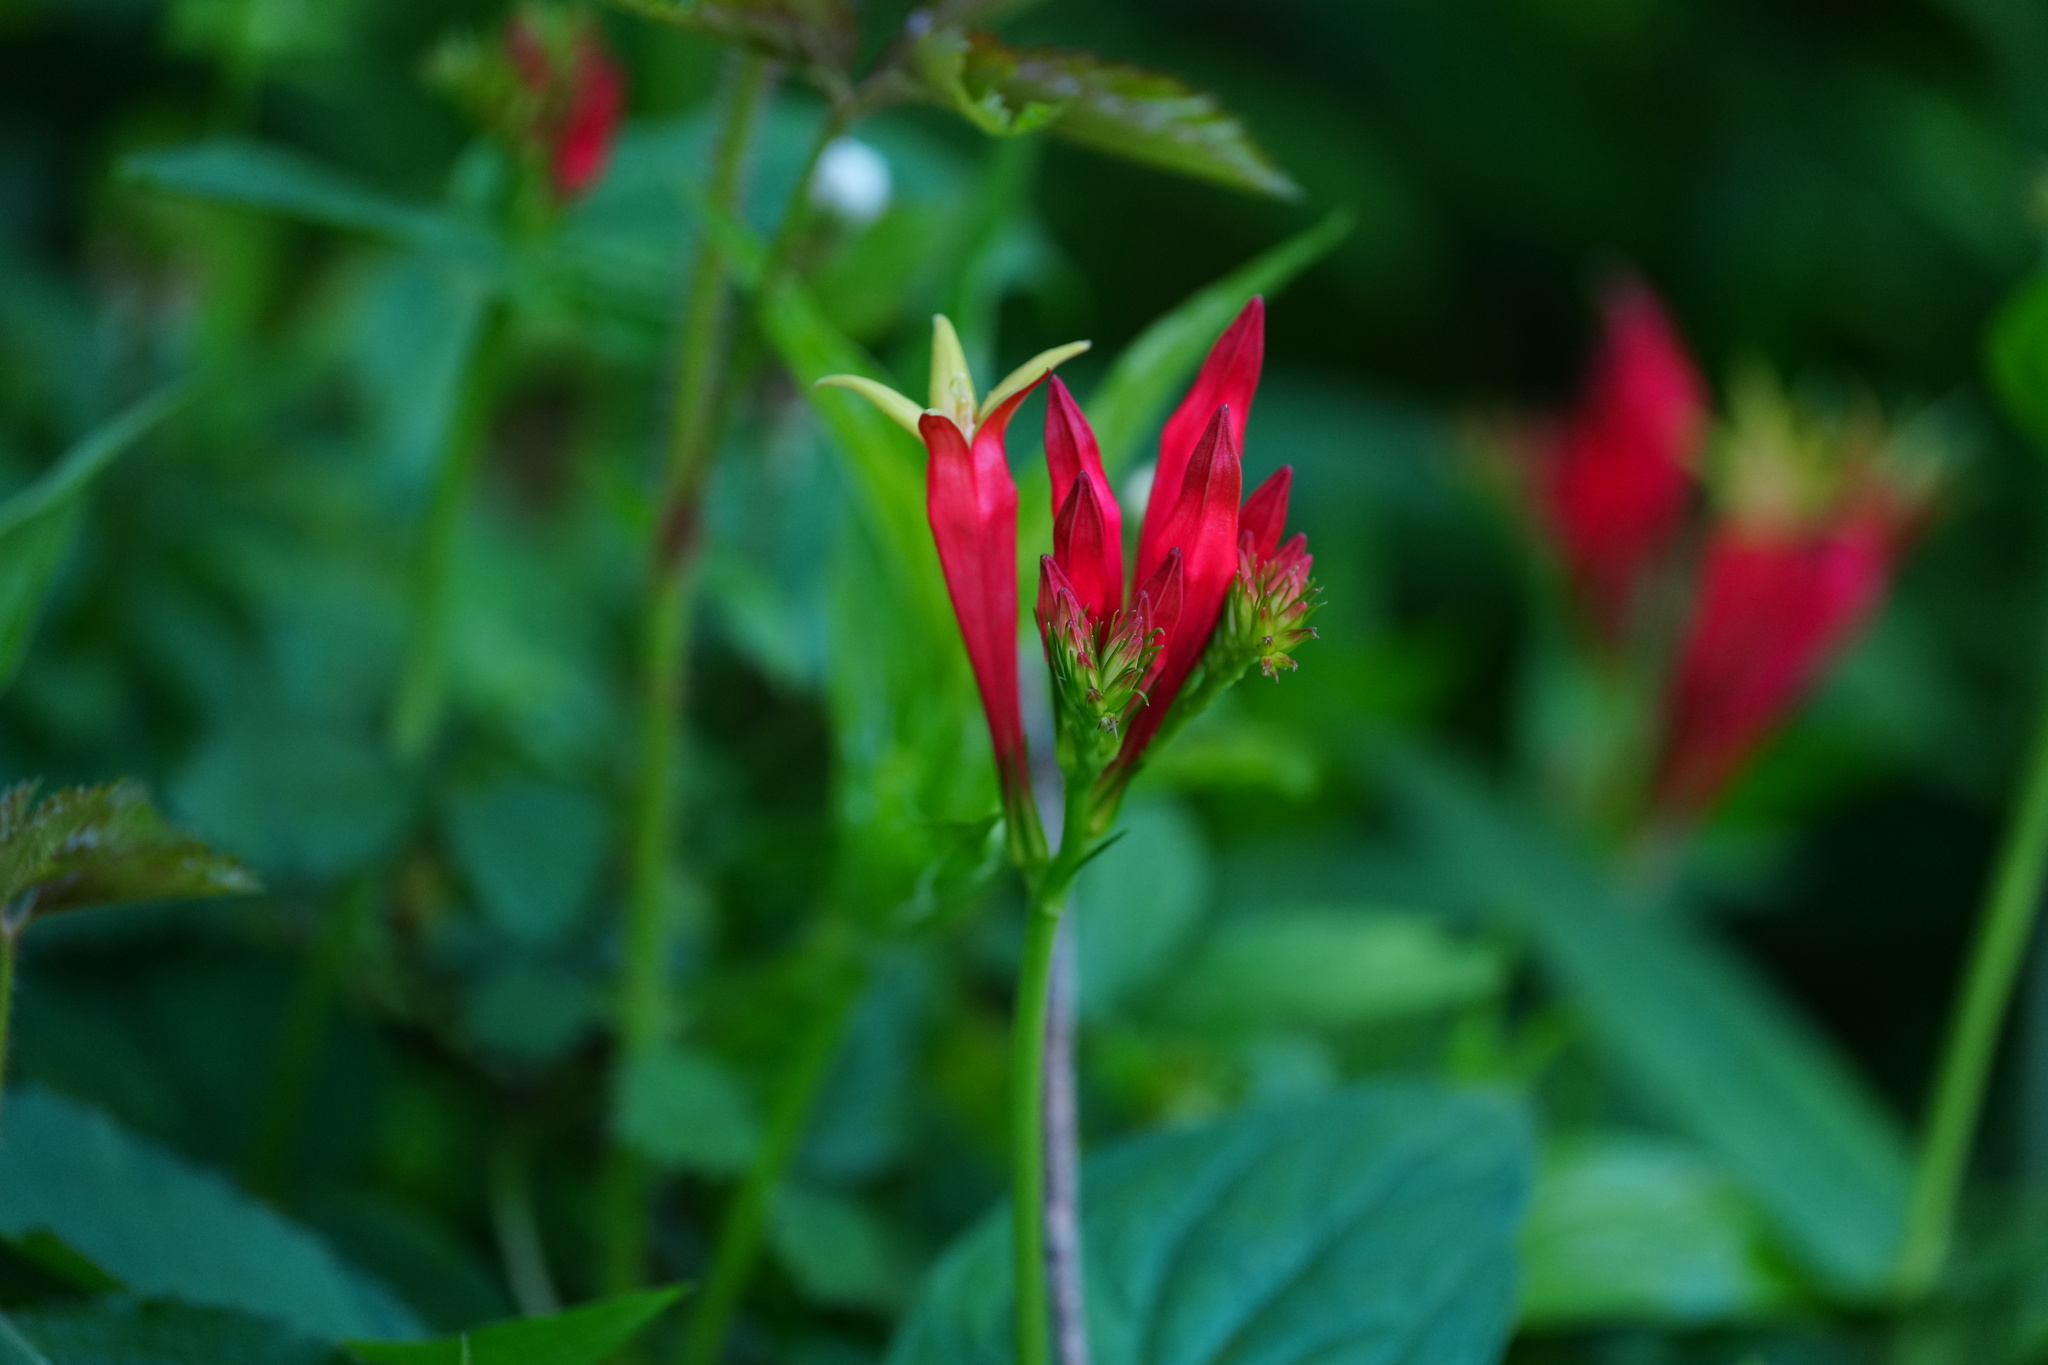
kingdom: Plantae
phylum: Tracheophyta
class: Magnoliopsida
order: Gentianales
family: Loganiaceae
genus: Spigelia
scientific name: Spigelia marilandica
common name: Indian-pink
